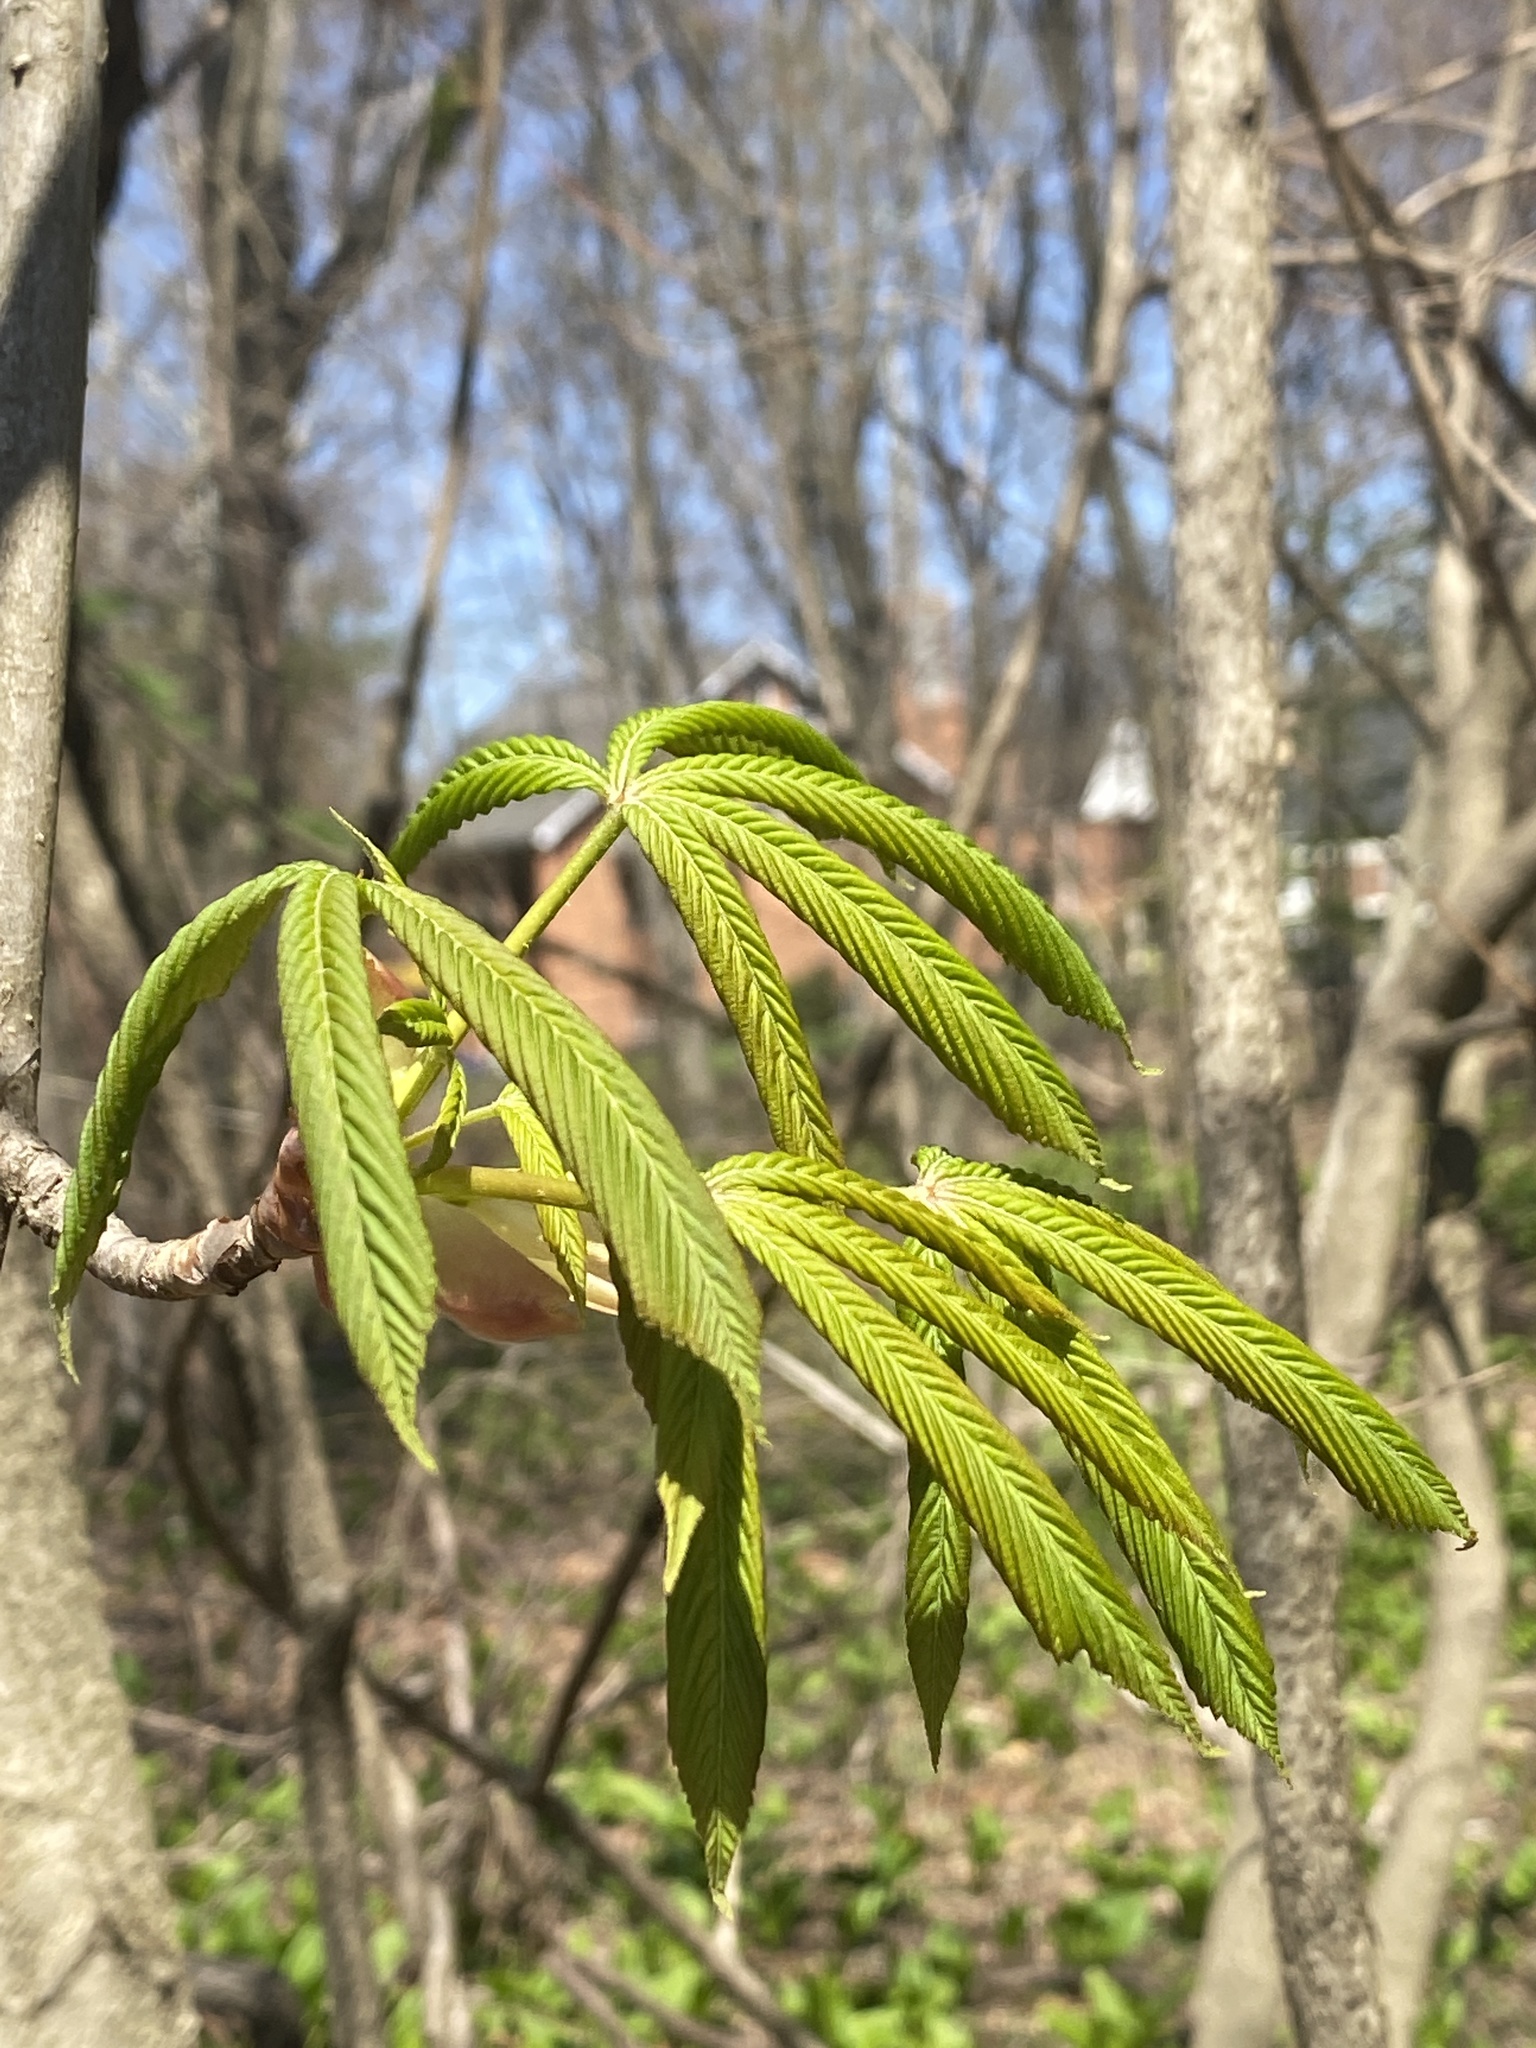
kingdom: Plantae
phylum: Tracheophyta
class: Magnoliopsida
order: Sapindales
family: Sapindaceae
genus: Aesculus
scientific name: Aesculus flava
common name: Yellow buckeye
